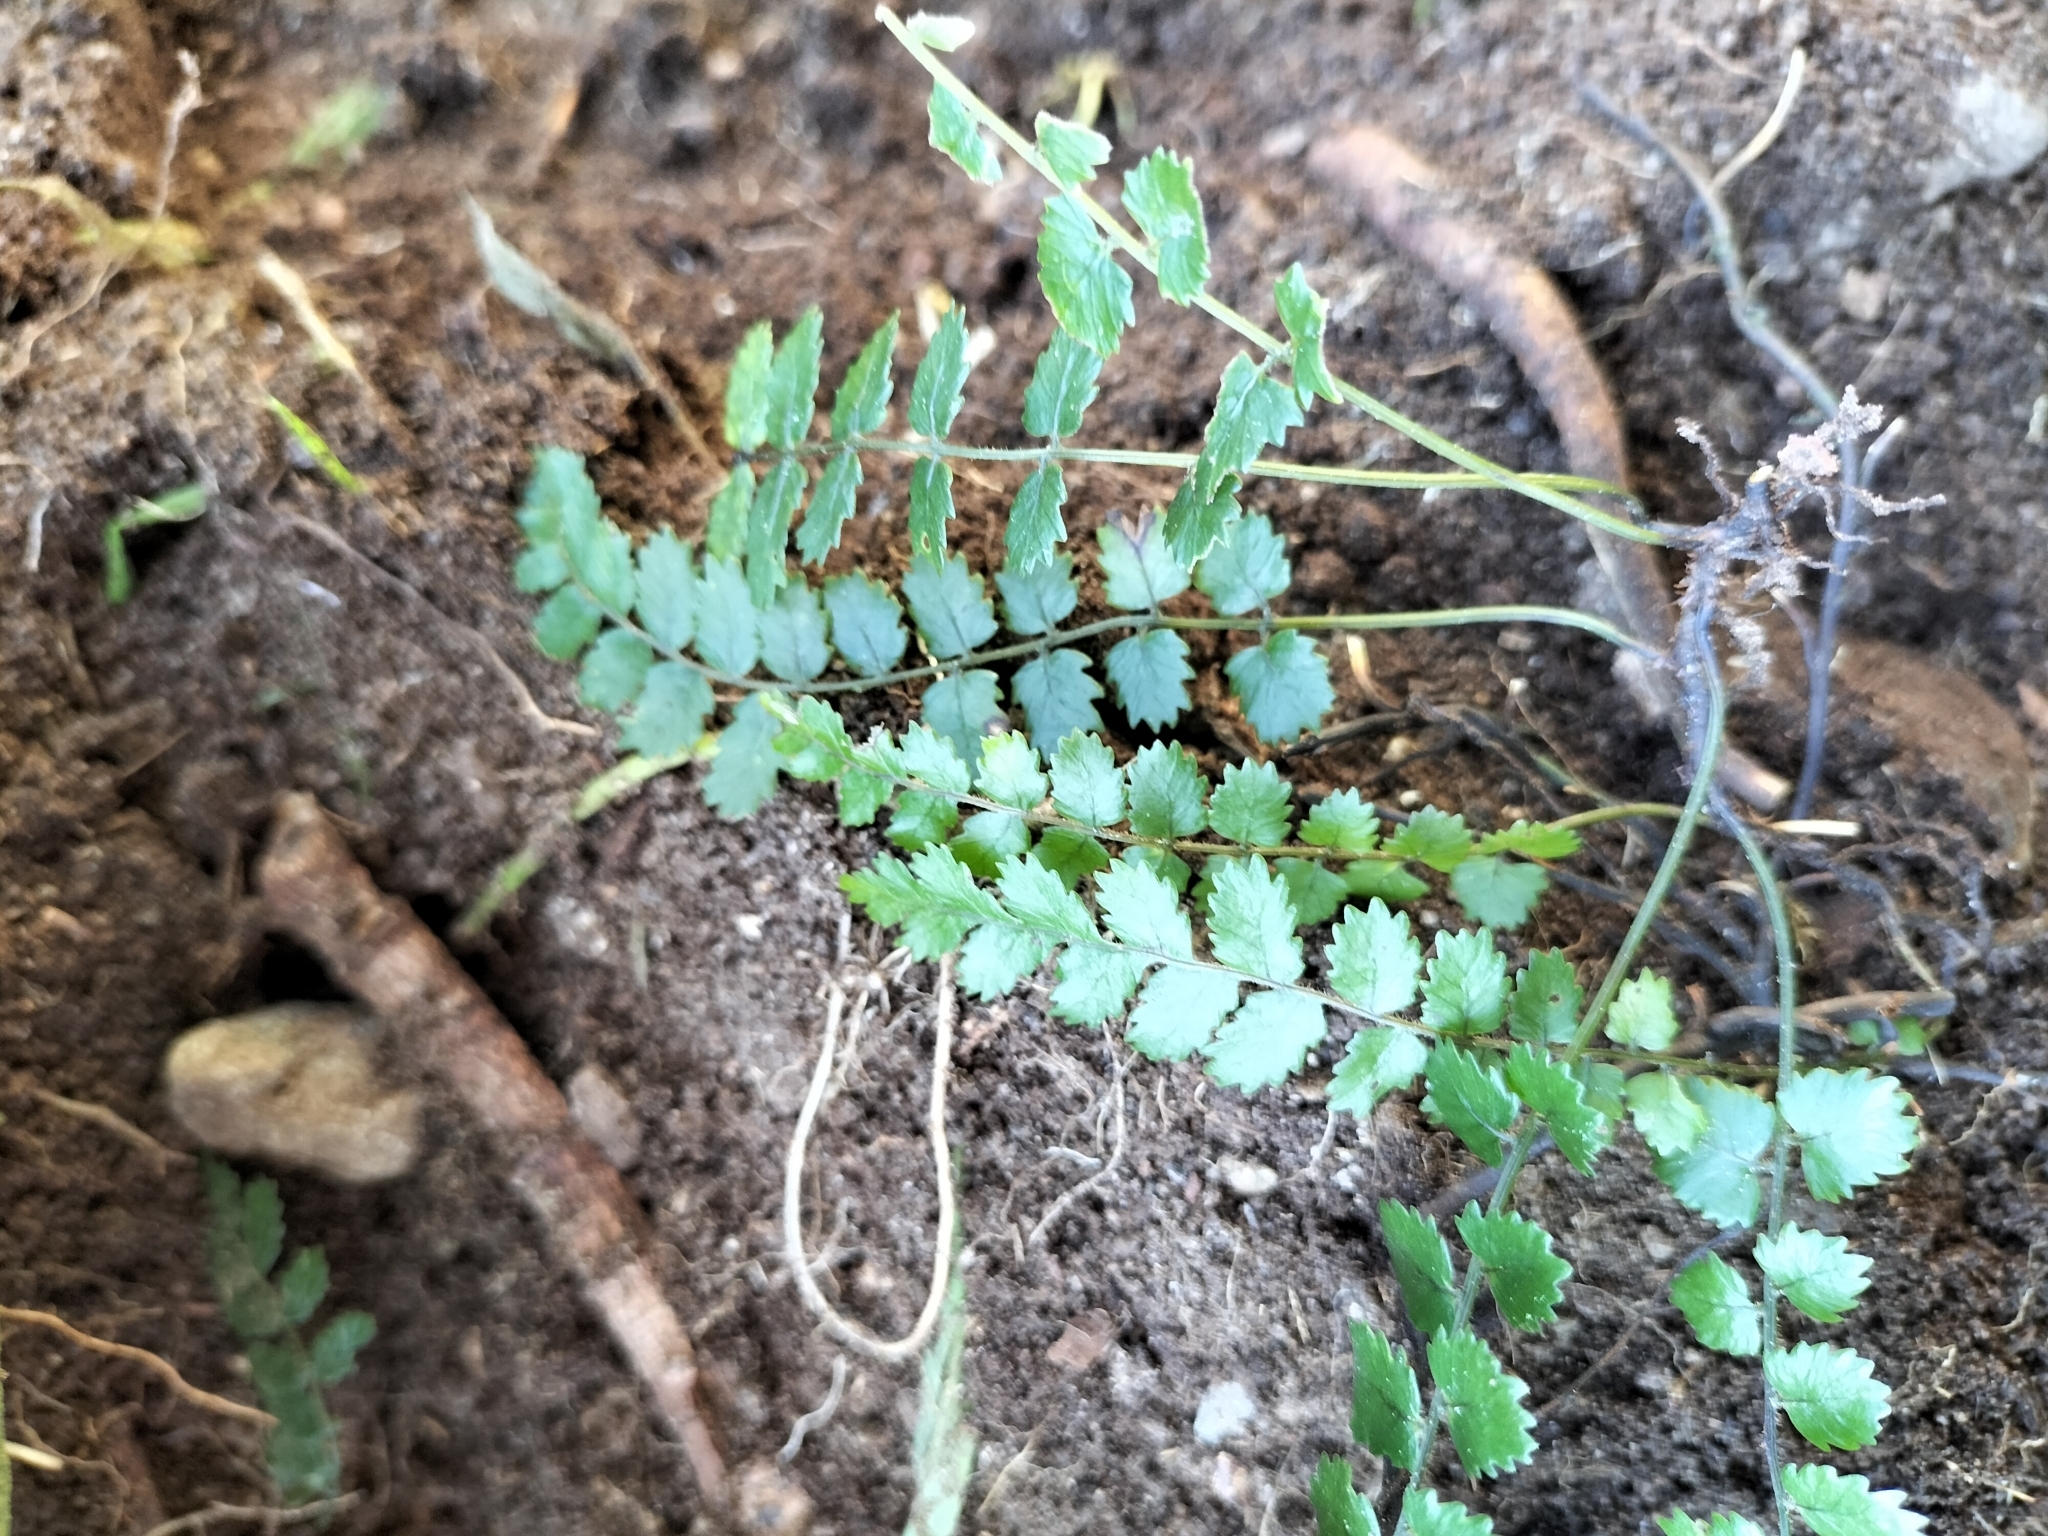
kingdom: Plantae
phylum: Tracheophyta
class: Polypodiopsida
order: Polypodiales
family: Blechnaceae
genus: Icarus
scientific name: Icarus filiformis
